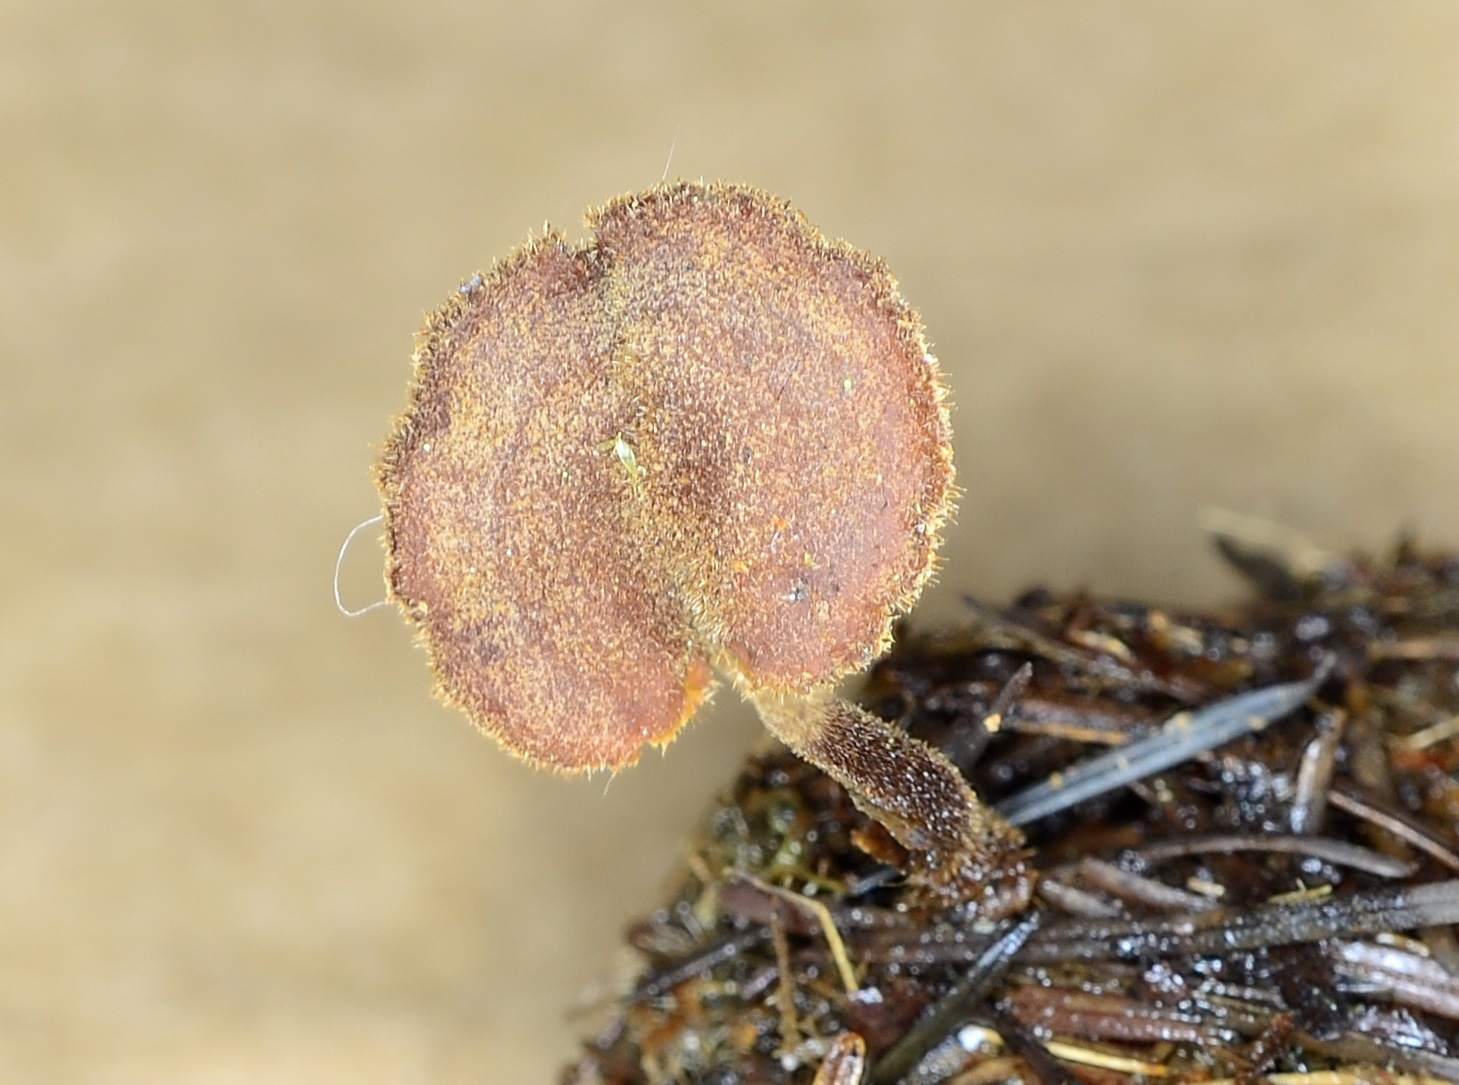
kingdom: Fungi
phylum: Basidiomycota
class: Agaricomycetes
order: Russulales
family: Auriscalpiaceae
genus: Auriscalpium
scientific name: Auriscalpium vulgare
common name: Earpick fungus
